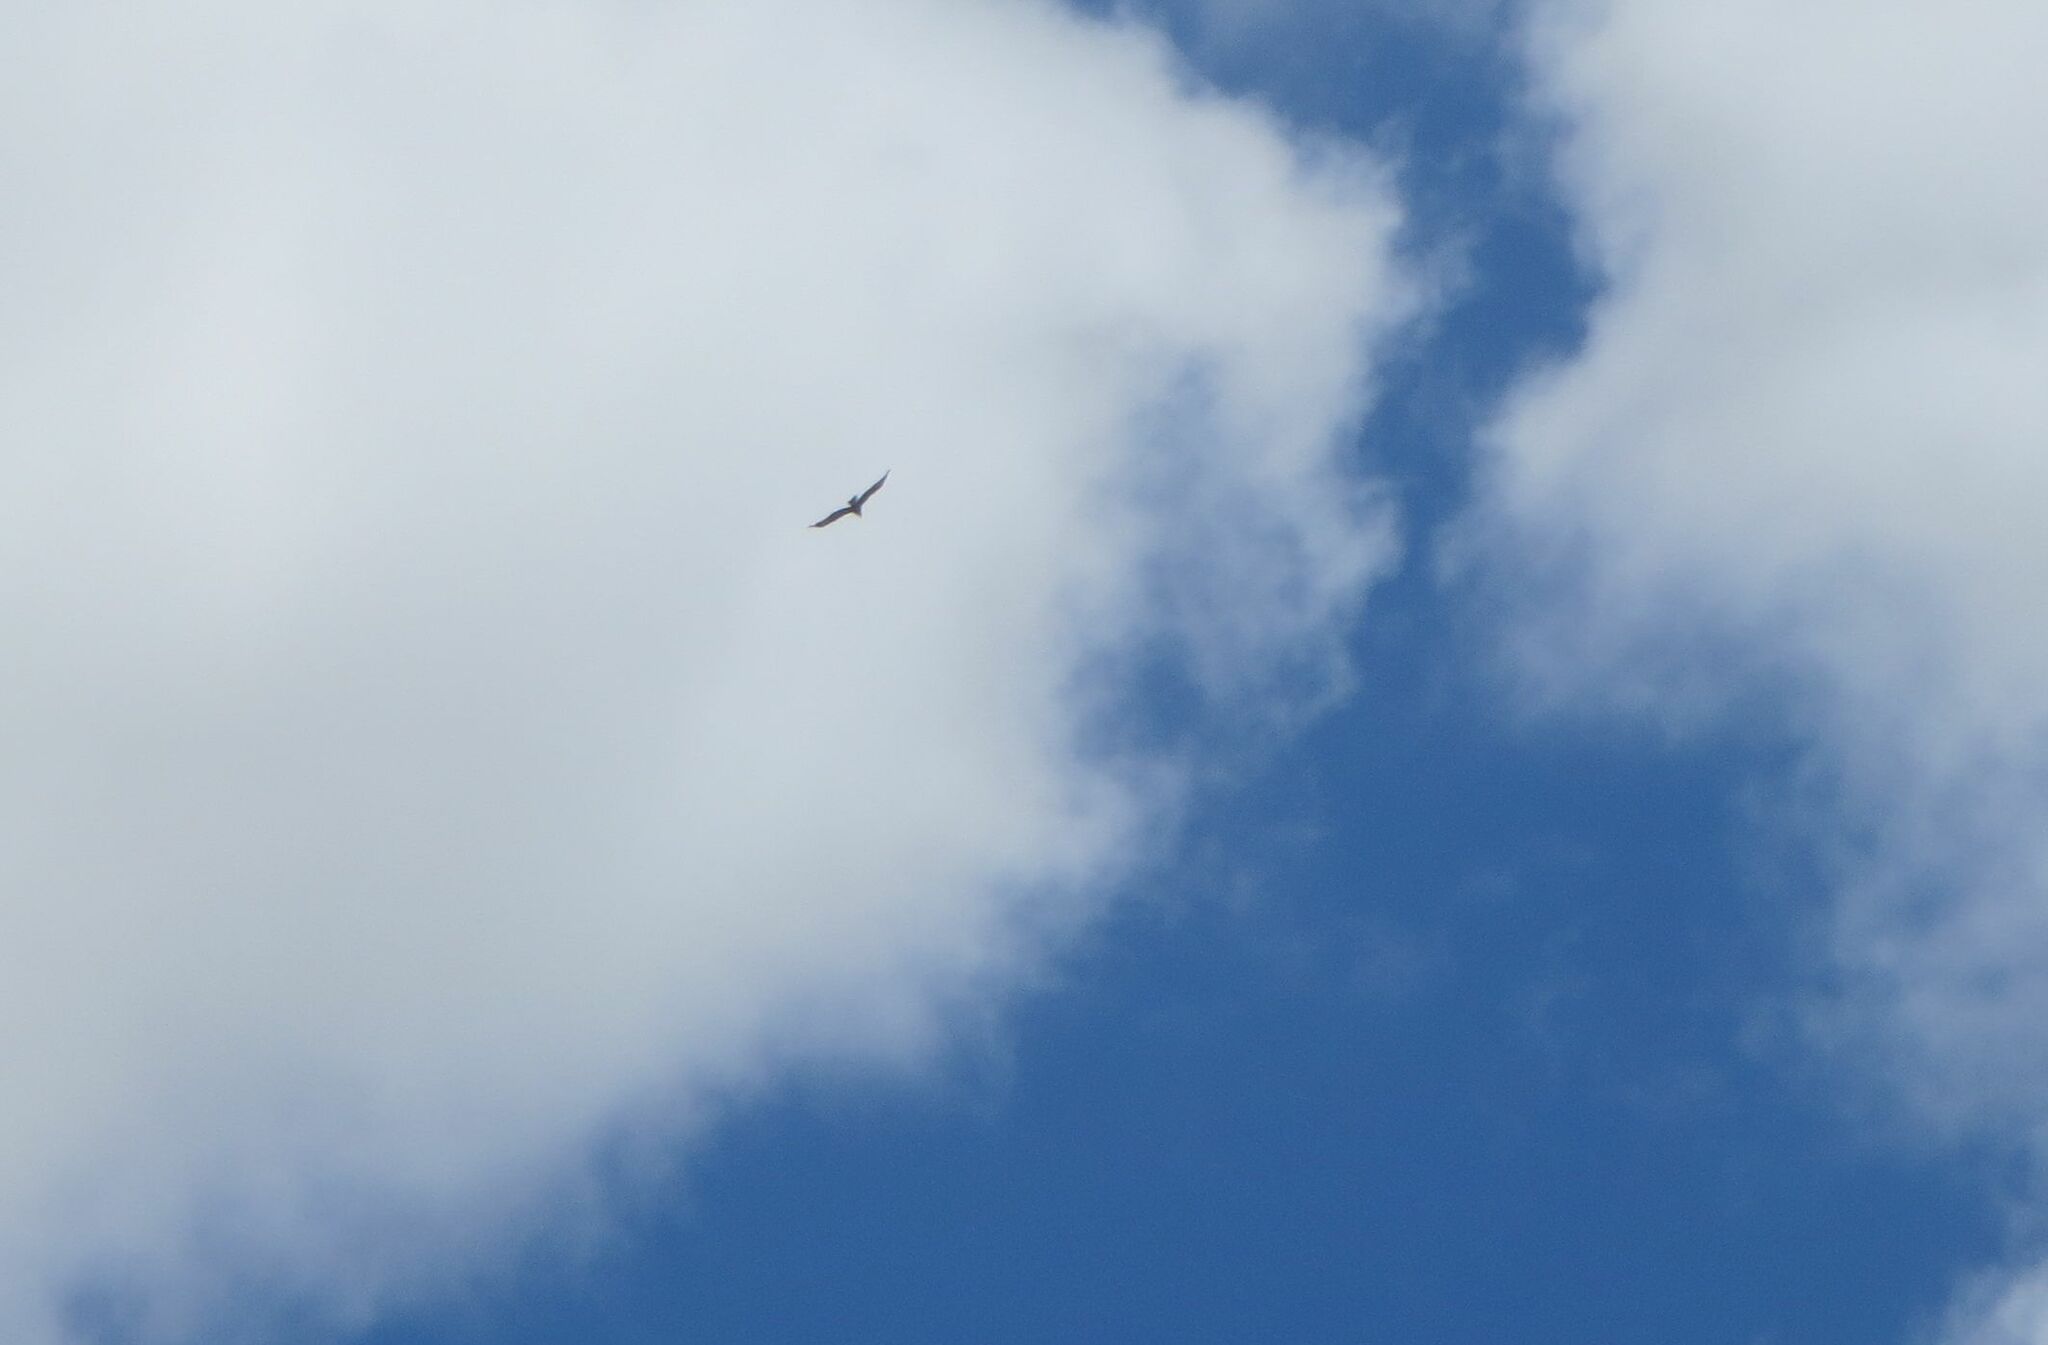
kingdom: Animalia
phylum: Chordata
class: Aves
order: Accipitriformes
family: Accipitridae
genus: Aquila
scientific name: Aquila audax
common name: Wedge-tailed eagle
